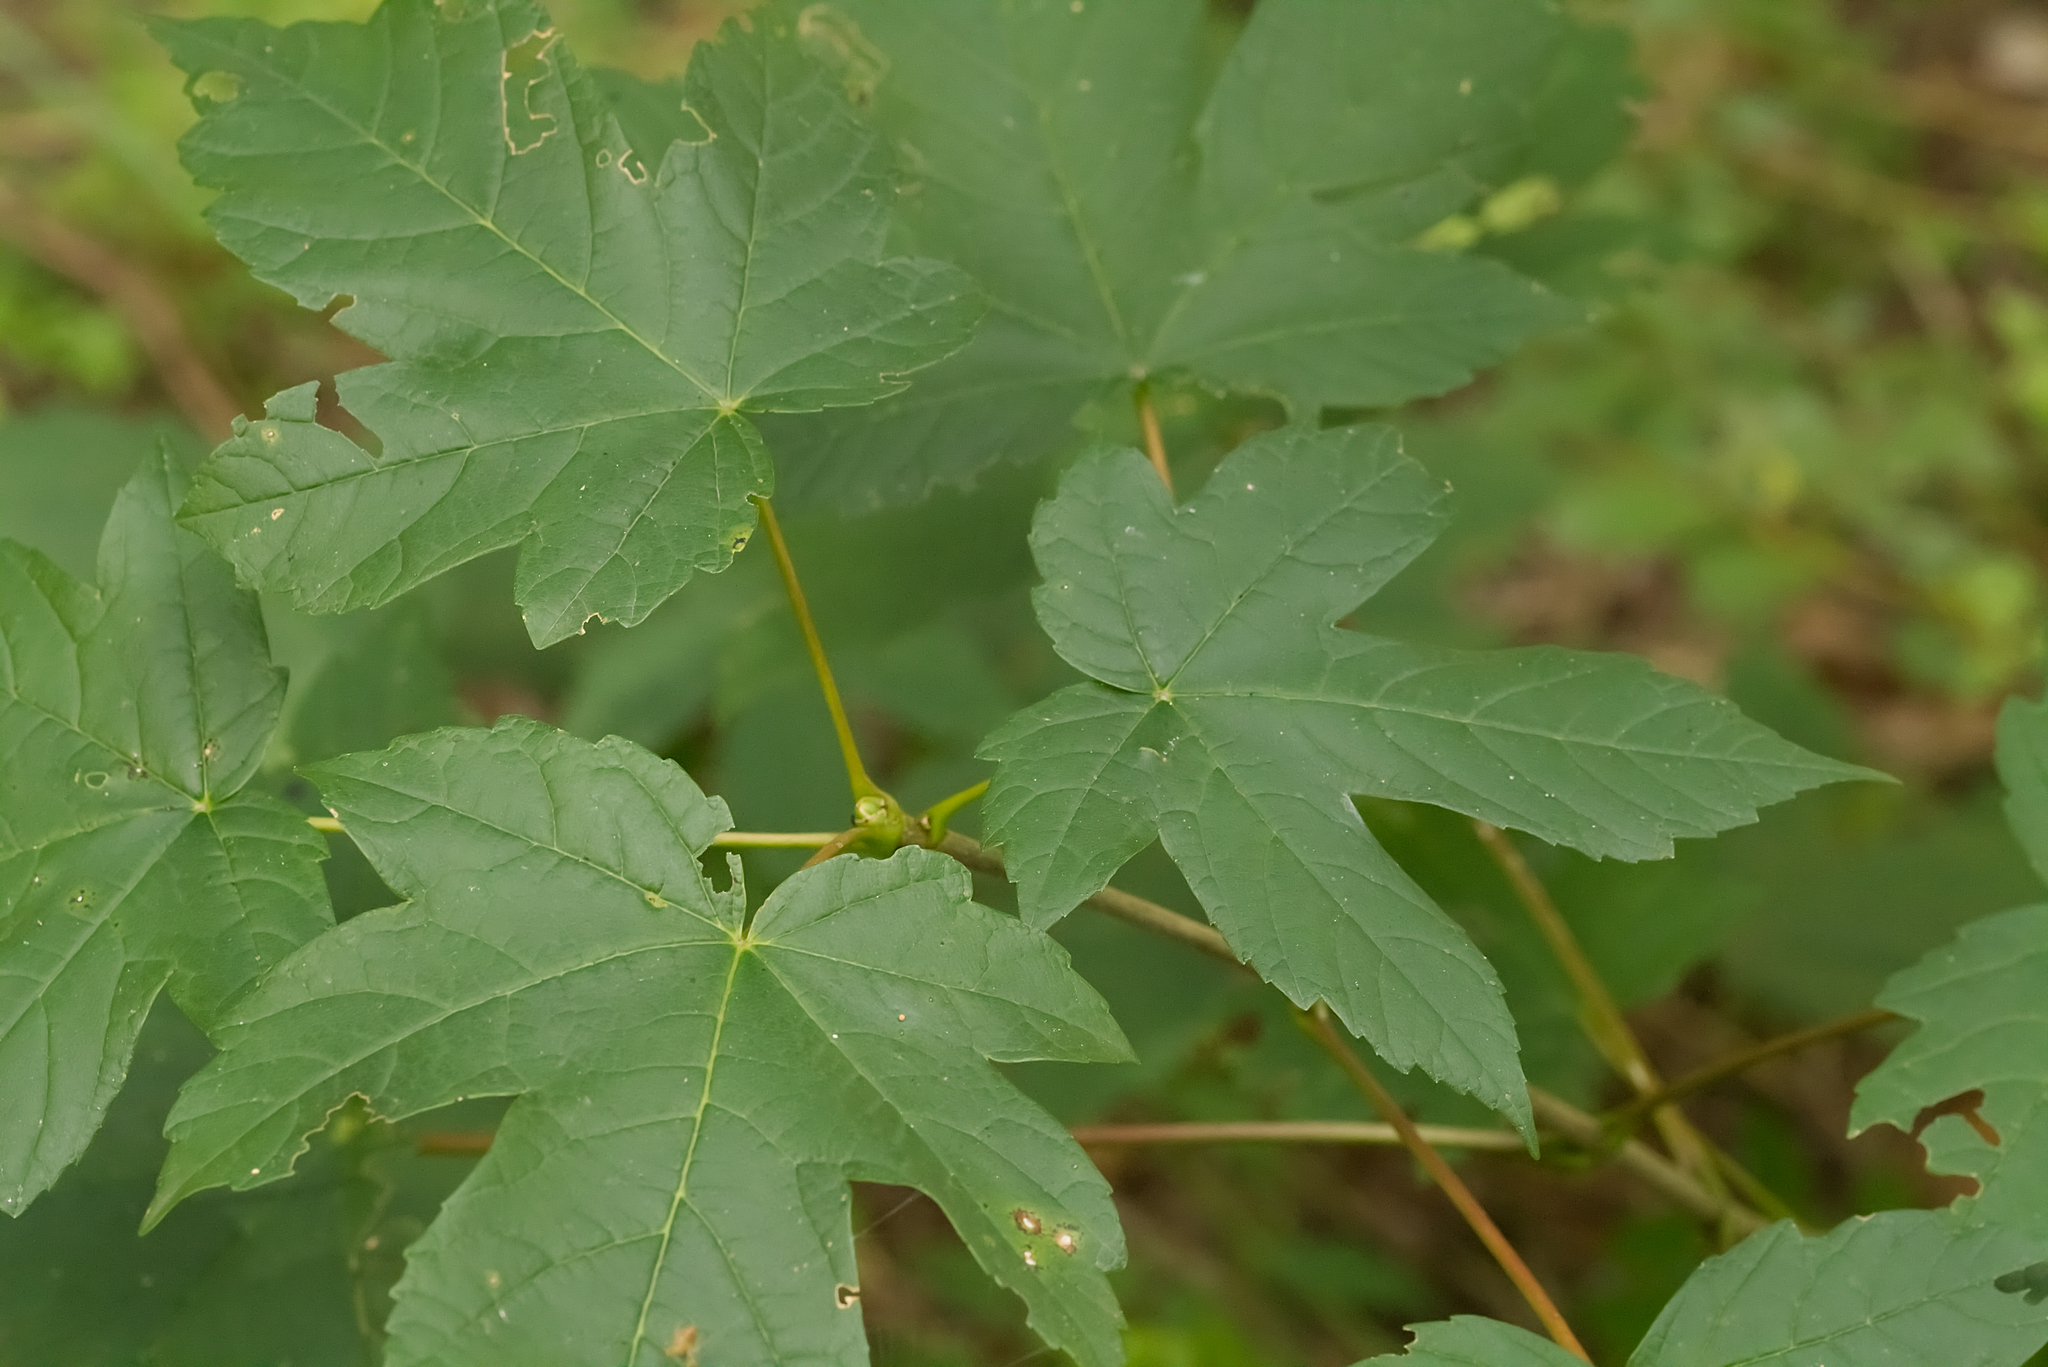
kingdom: Plantae
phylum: Tracheophyta
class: Magnoliopsida
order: Sapindales
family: Sapindaceae
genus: Acer
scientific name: Acer pseudoplatanus
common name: Sycamore
